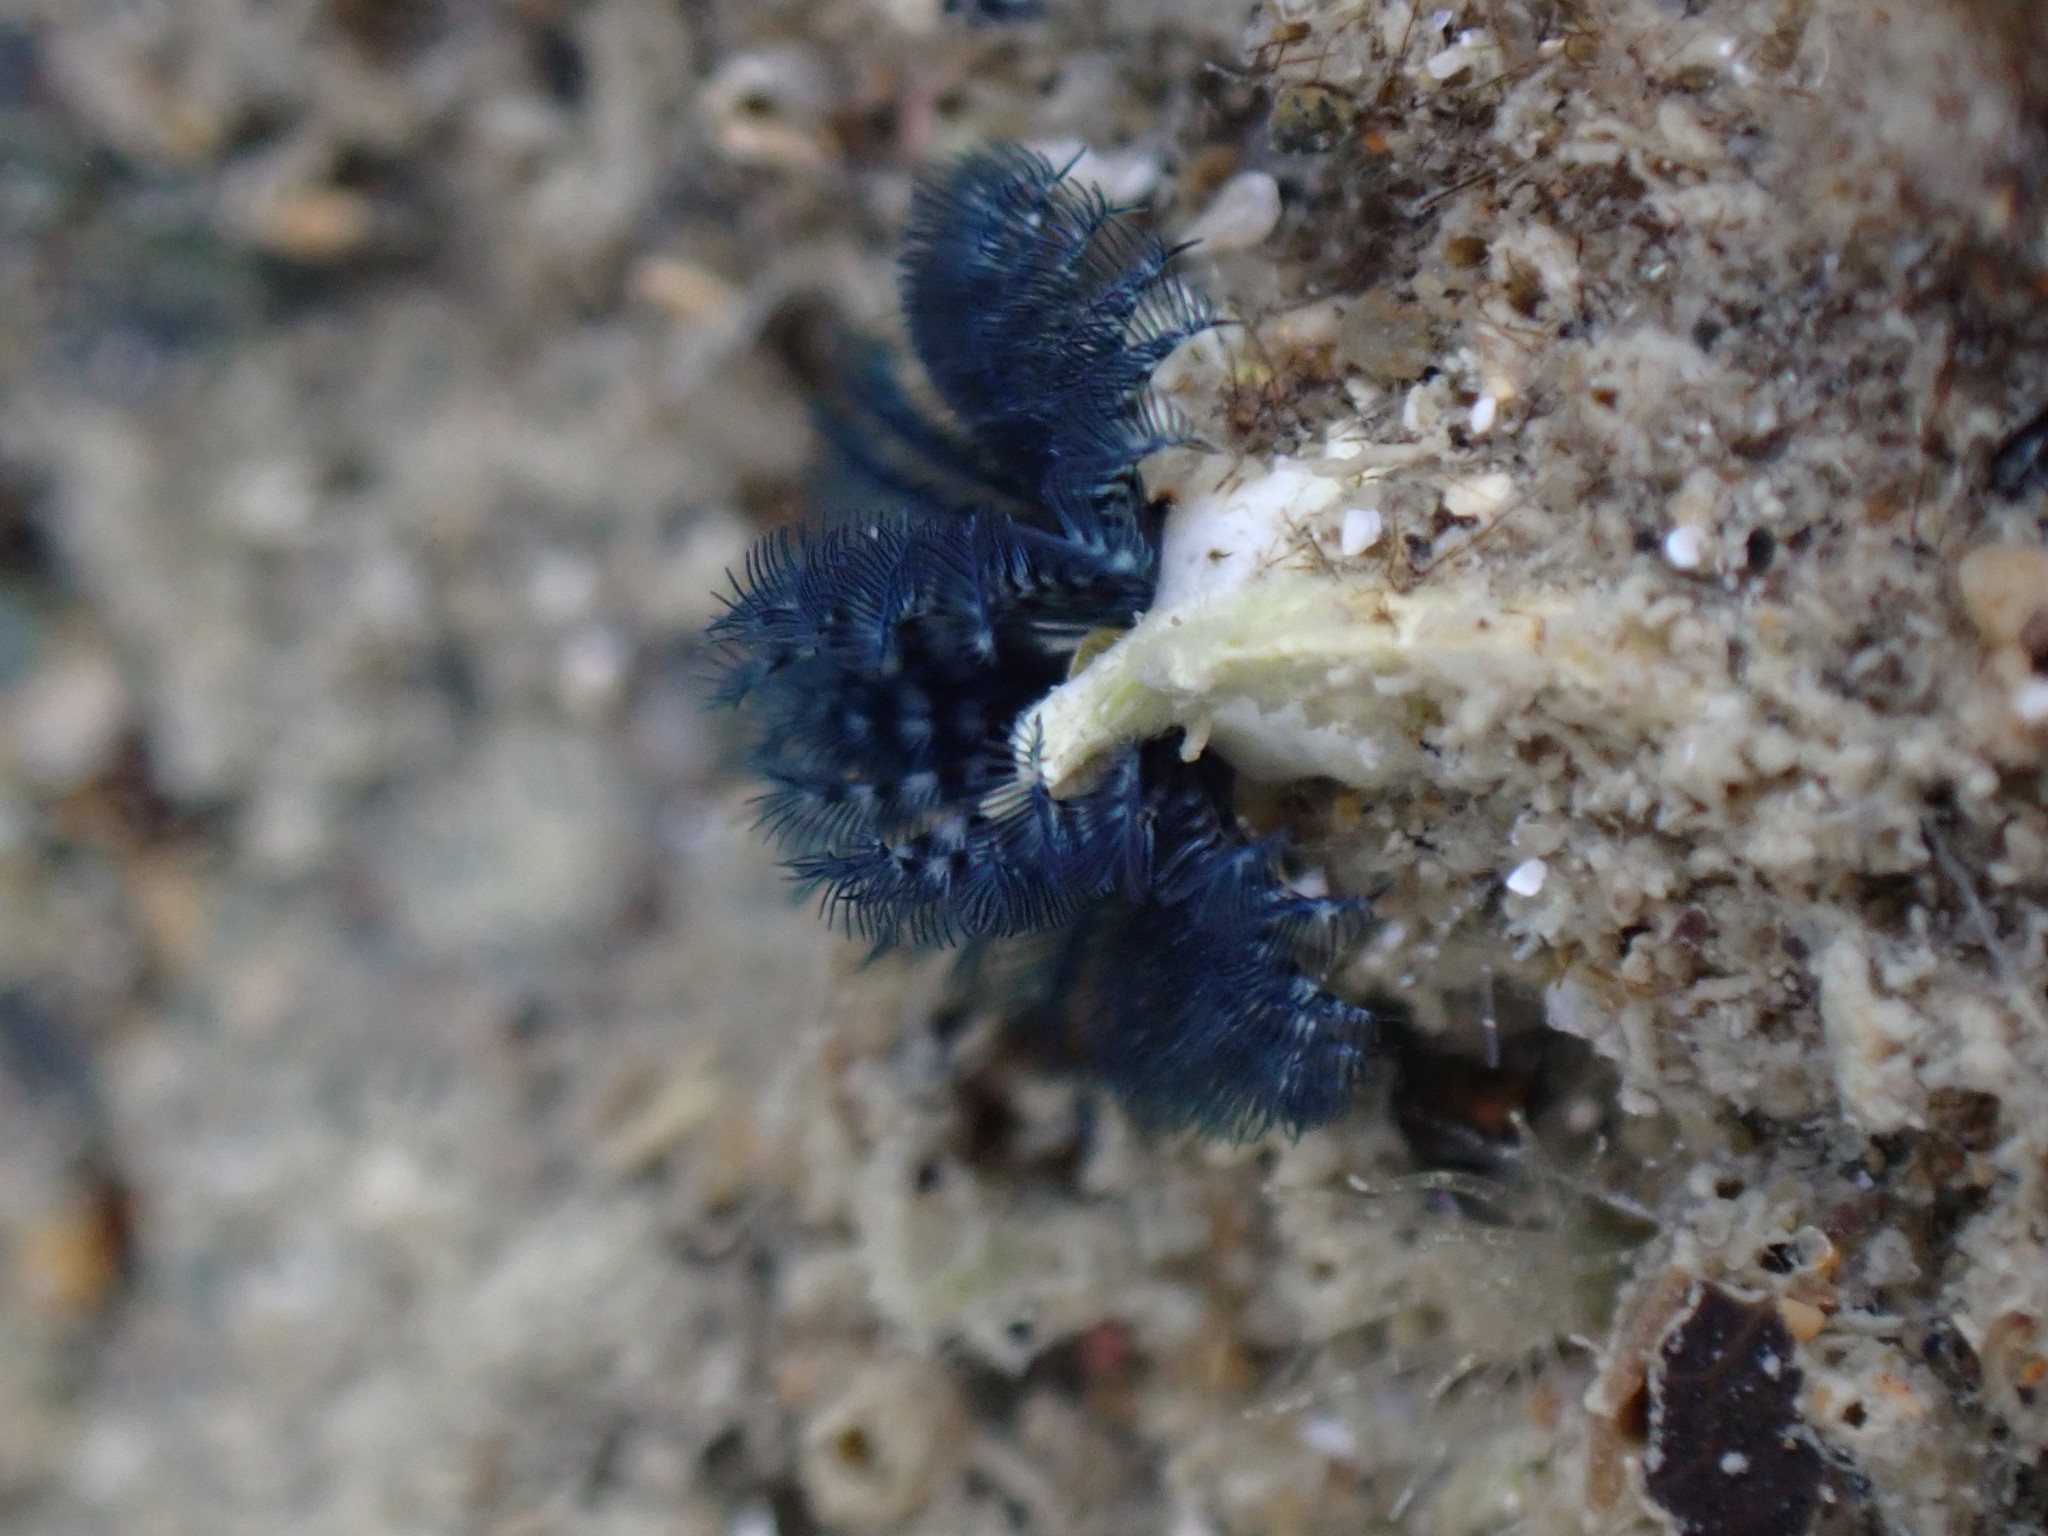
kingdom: Animalia
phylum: Annelida
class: Polychaeta
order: Sabellida
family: Serpulidae
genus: Spirobranchus
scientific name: Spirobranchus cariniferus
